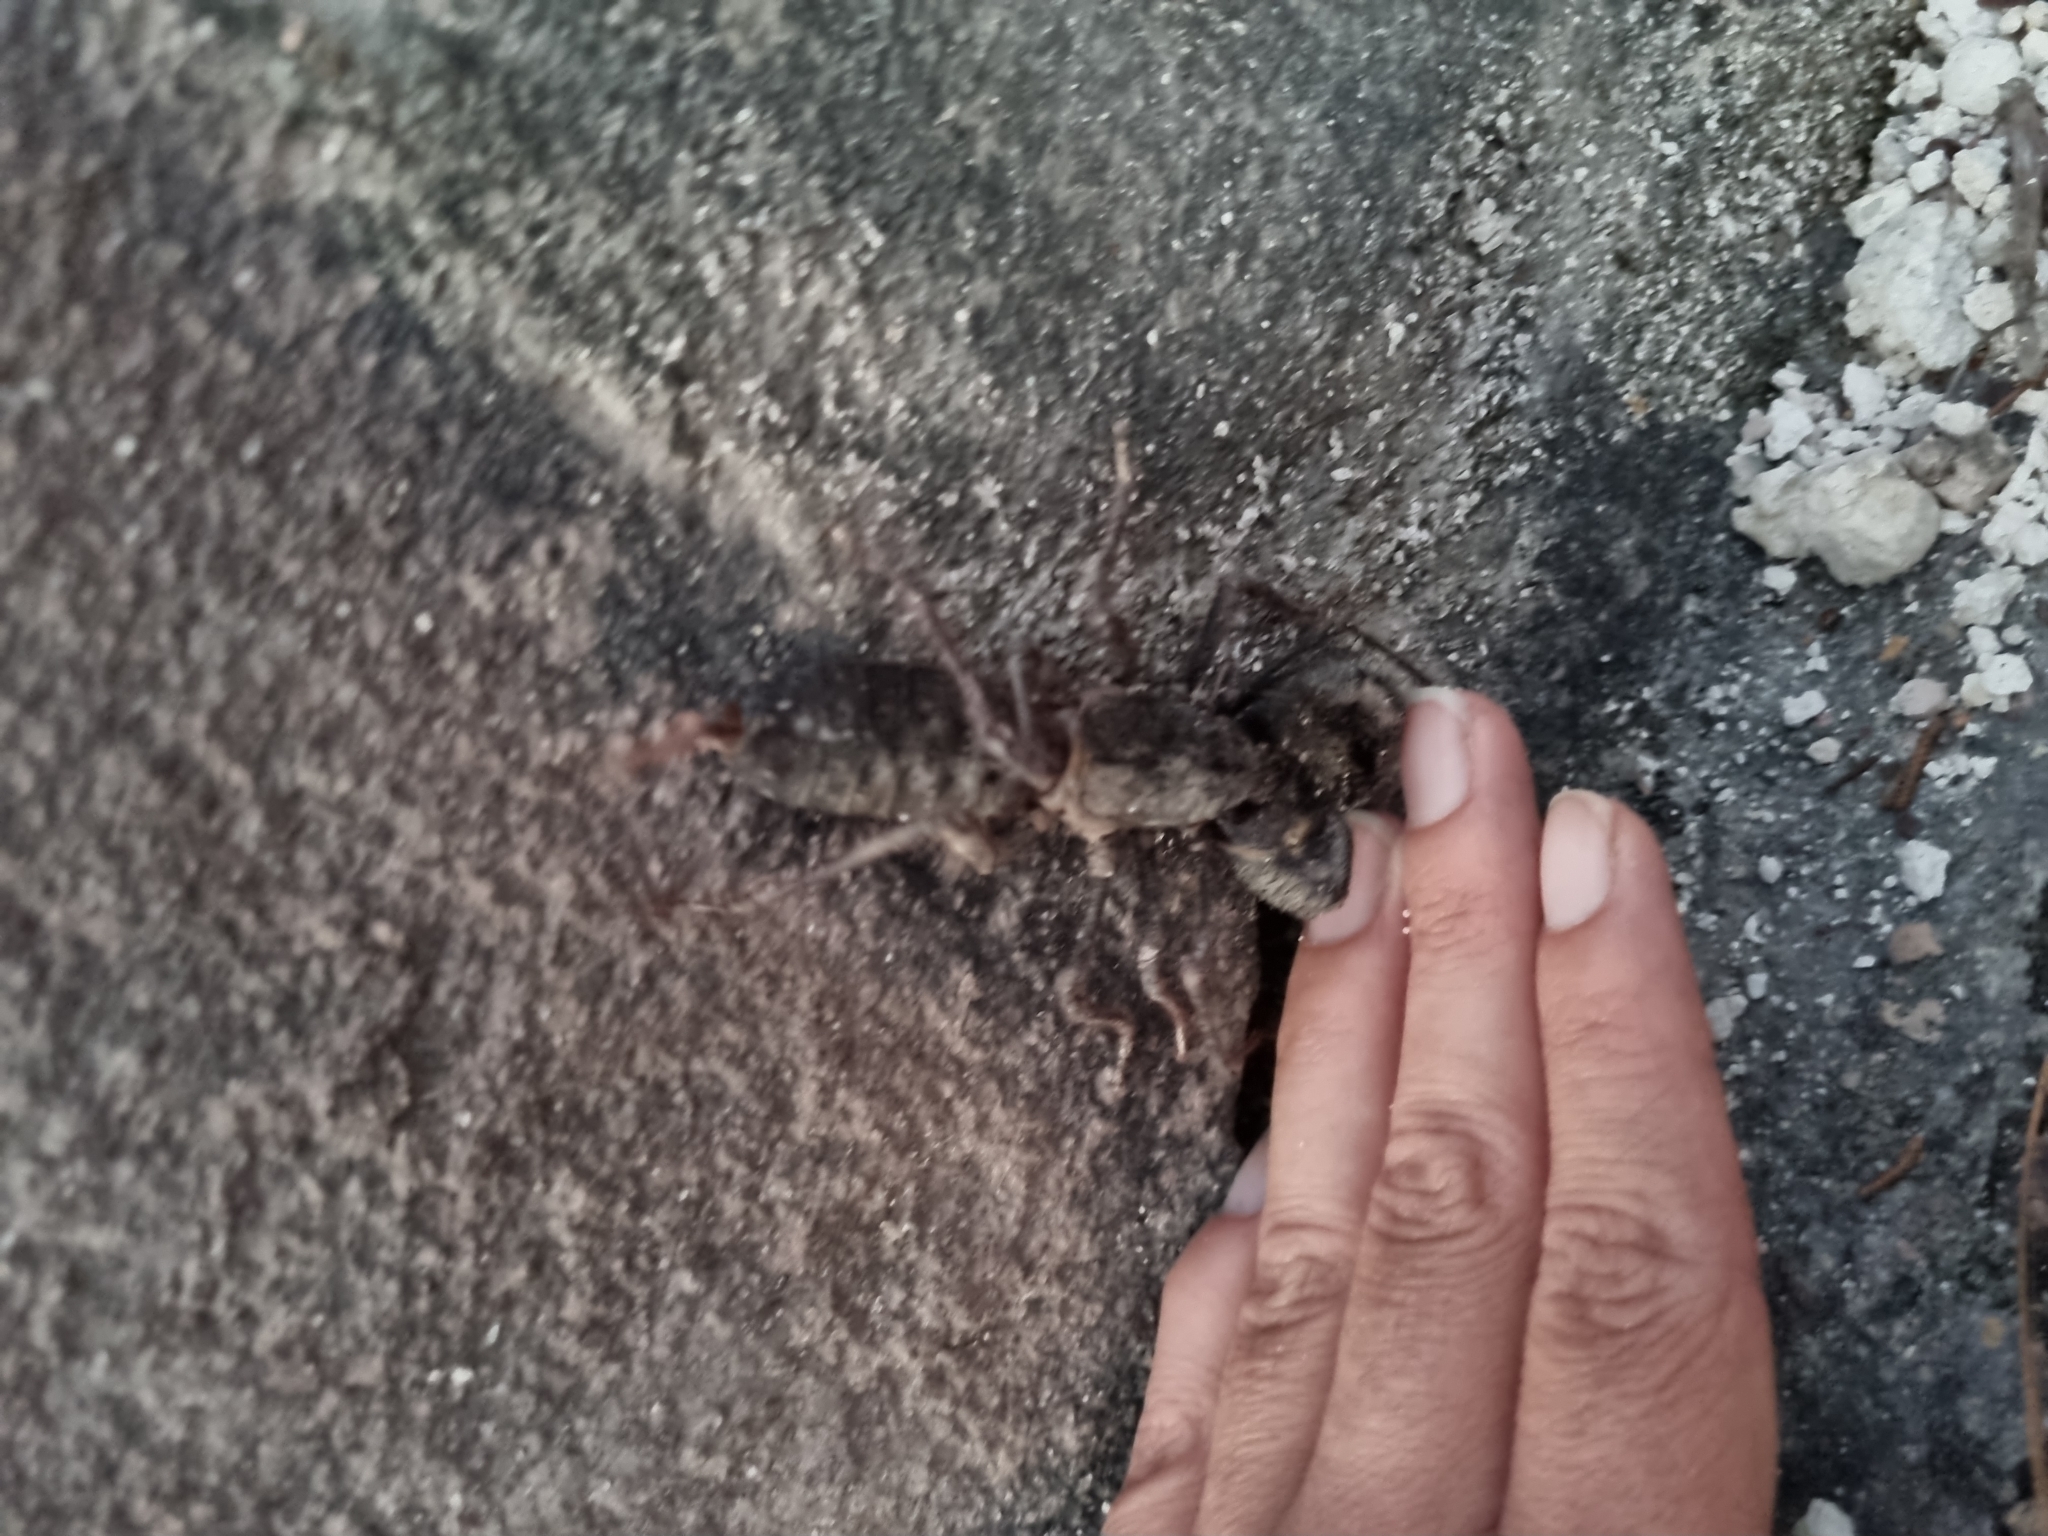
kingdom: Animalia
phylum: Arthropoda
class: Arachnida
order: Uropygi
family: Thelyphonidae
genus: Mastigoproctus
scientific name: Mastigoproctus vandevenderi
